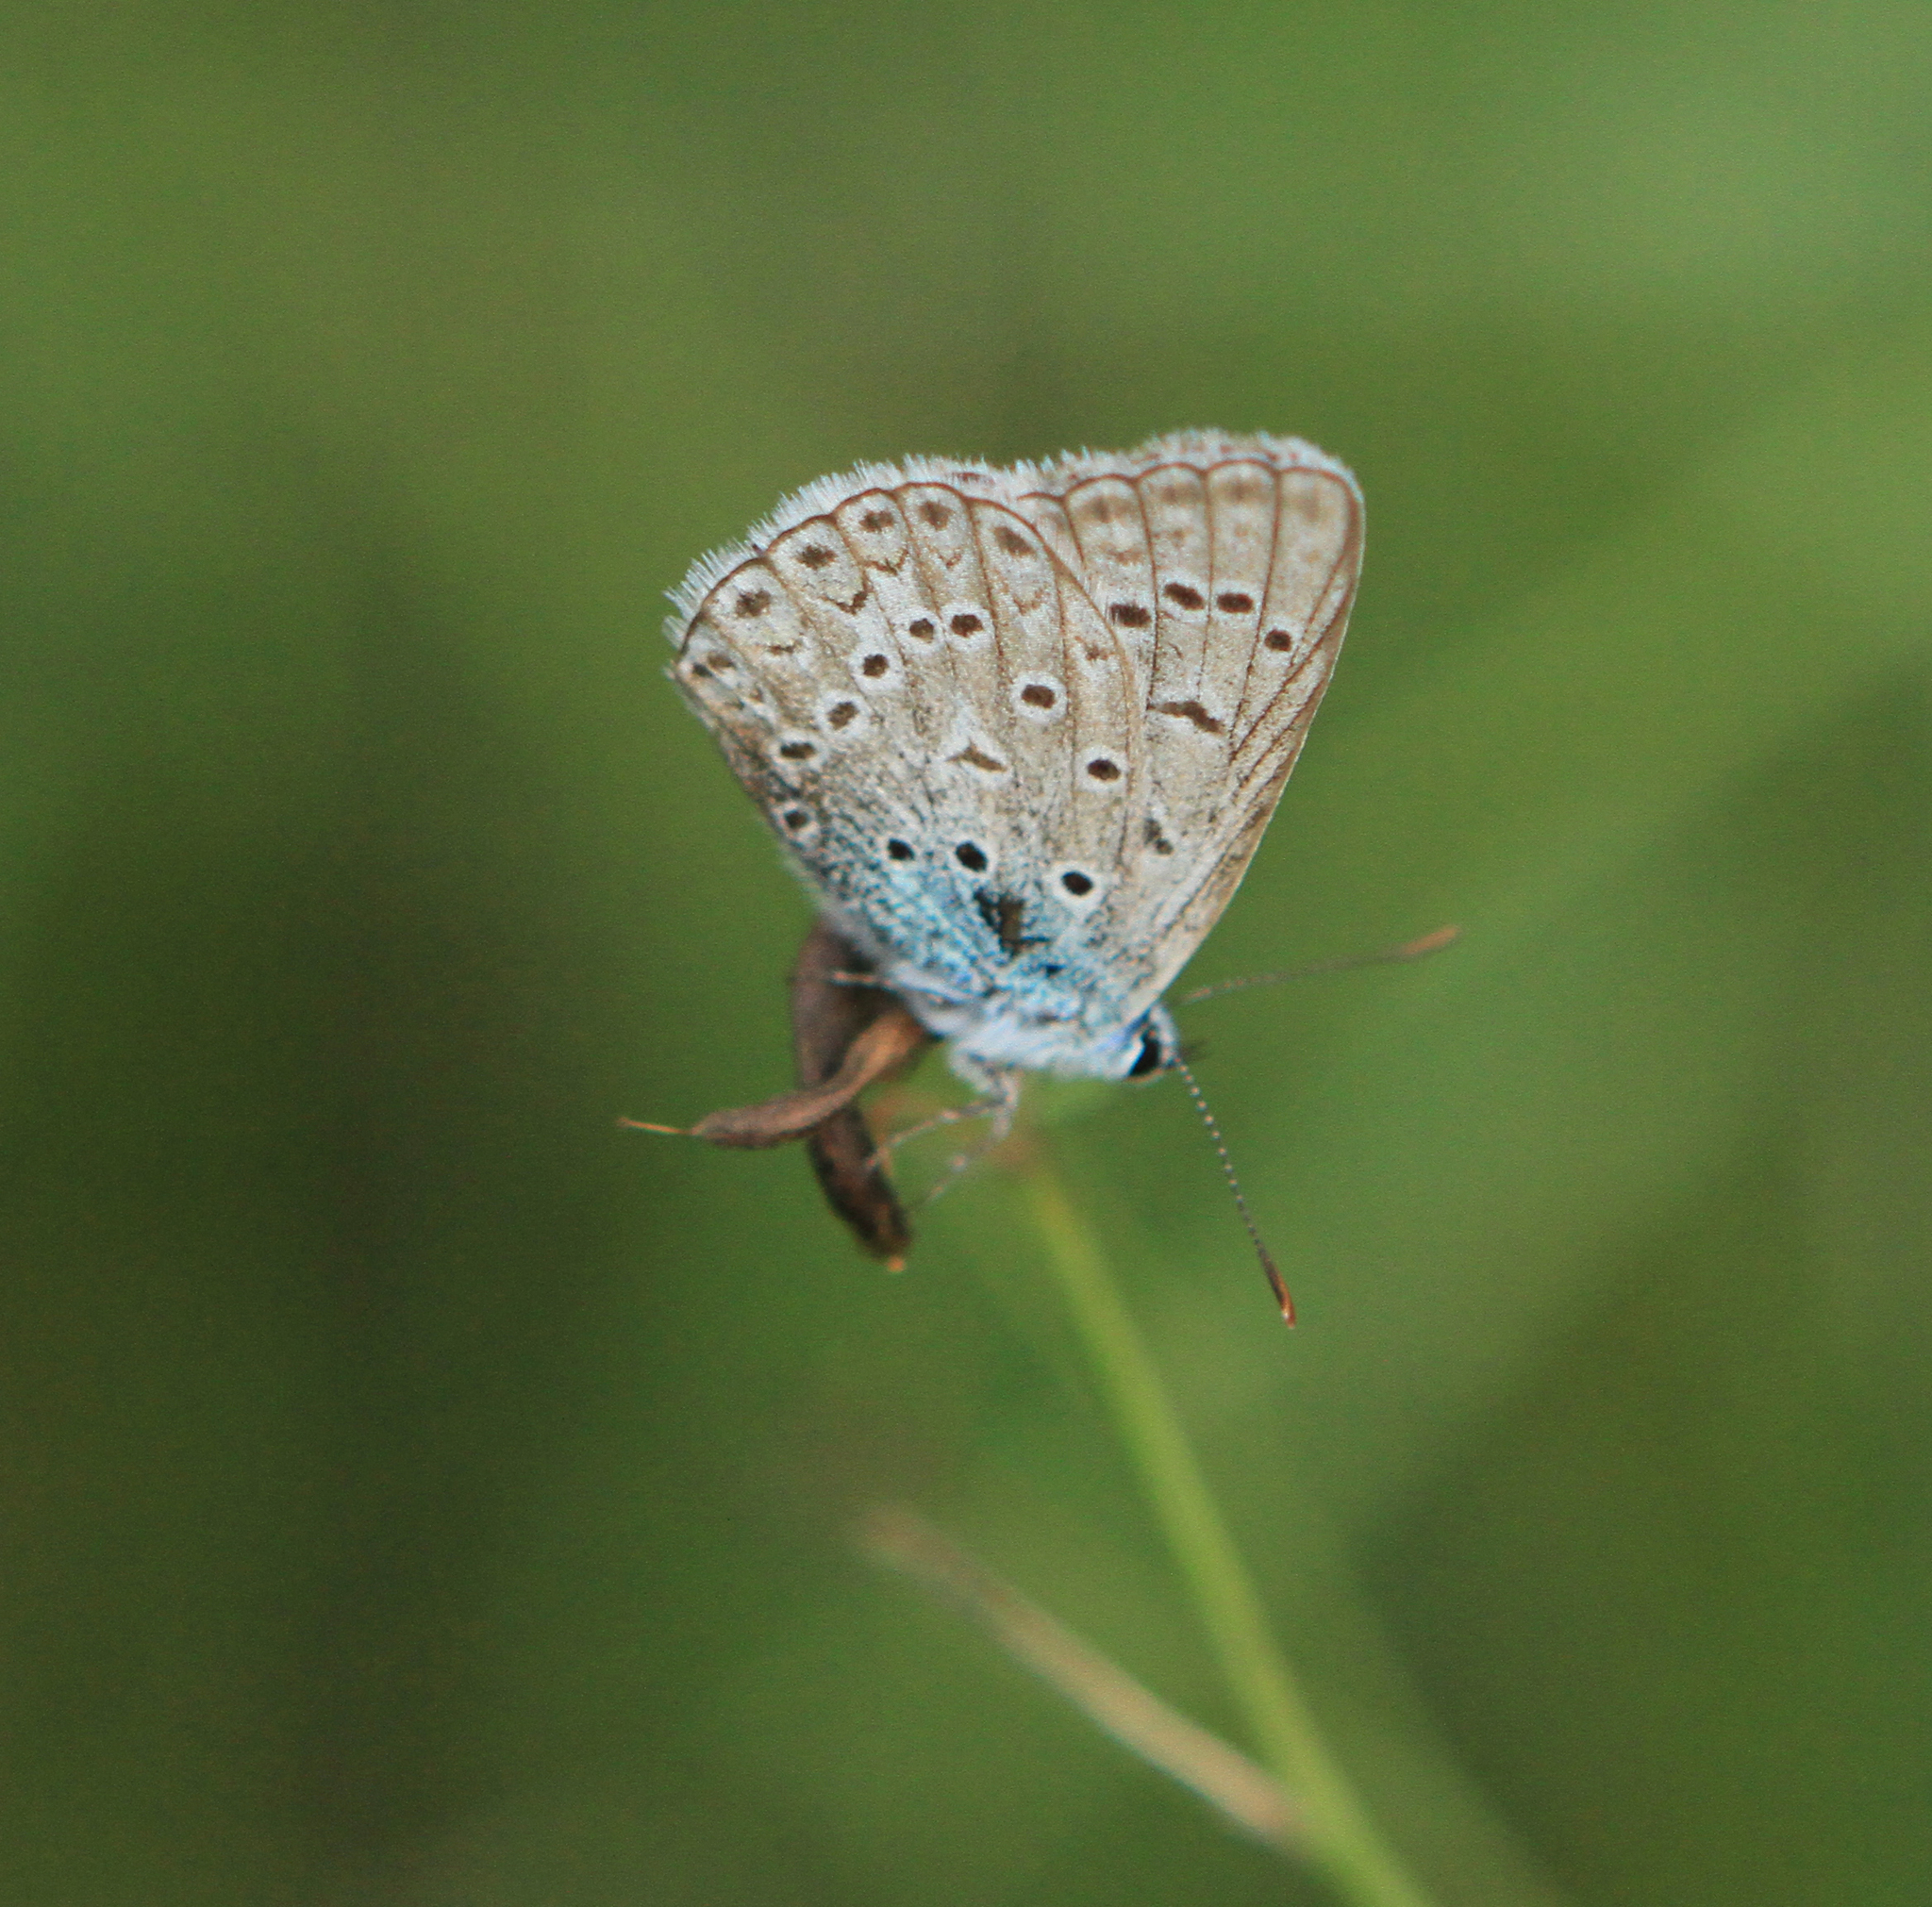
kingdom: Animalia
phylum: Arthropoda
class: Insecta
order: Lepidoptera
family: Lycaenidae
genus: Polyommatus
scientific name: Polyommatus icarus
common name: Common blue
